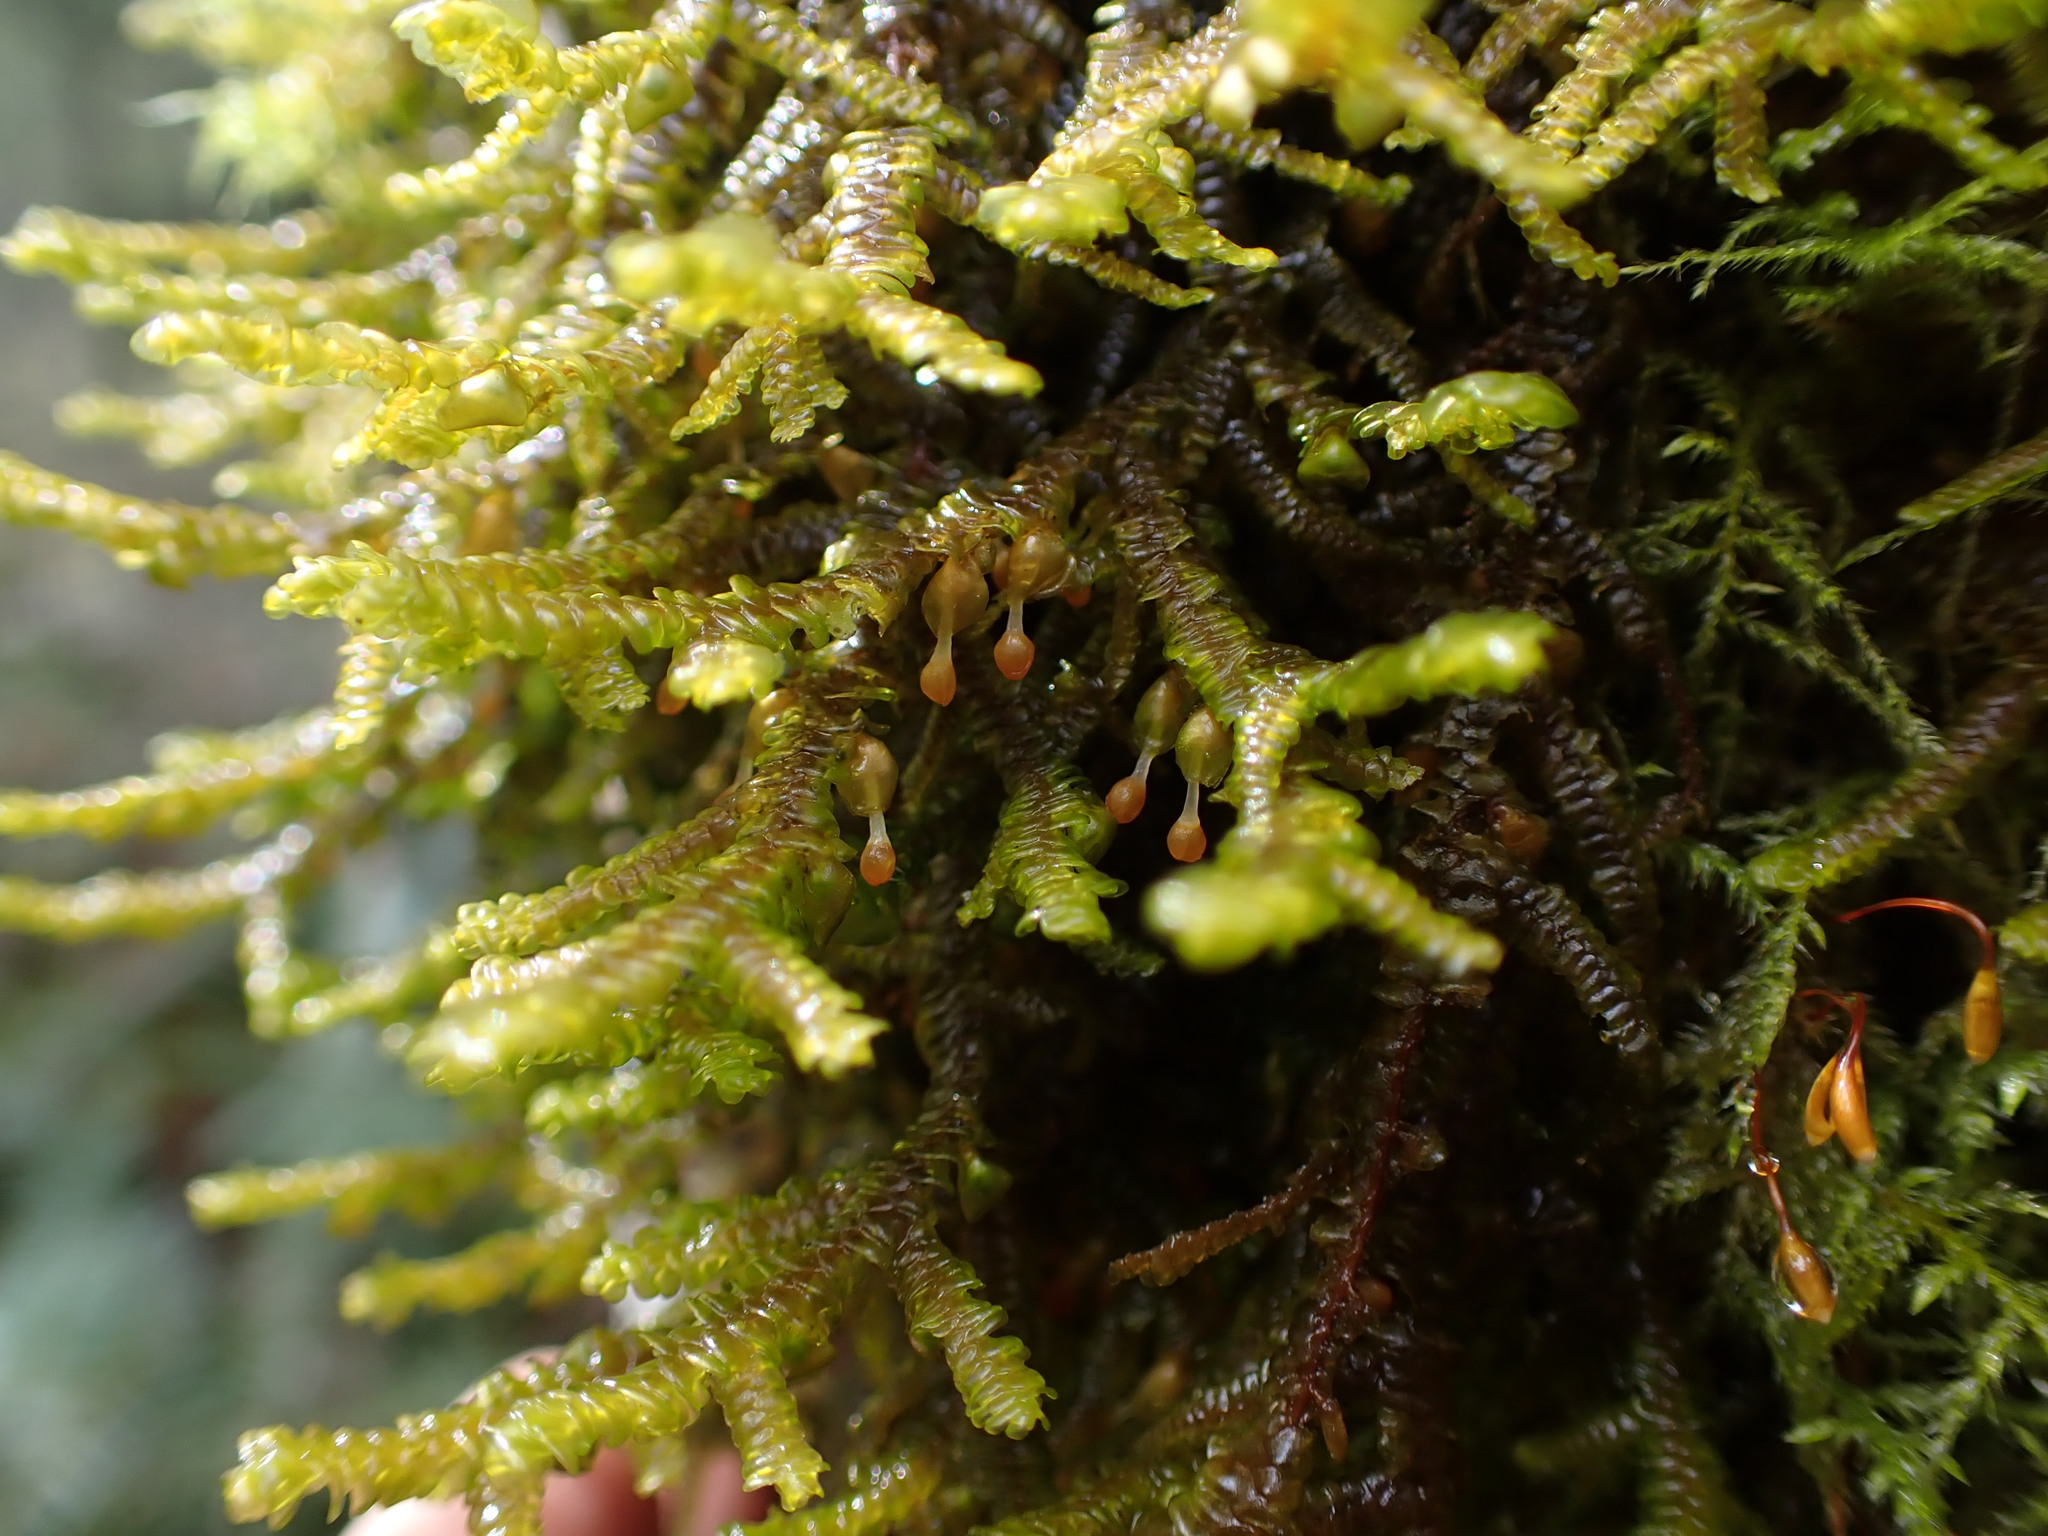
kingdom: Plantae
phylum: Marchantiophyta
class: Jungermanniopsida
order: Porellales
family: Porellaceae
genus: Porella
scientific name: Porella navicularis
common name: Tree ruffle liverwort
